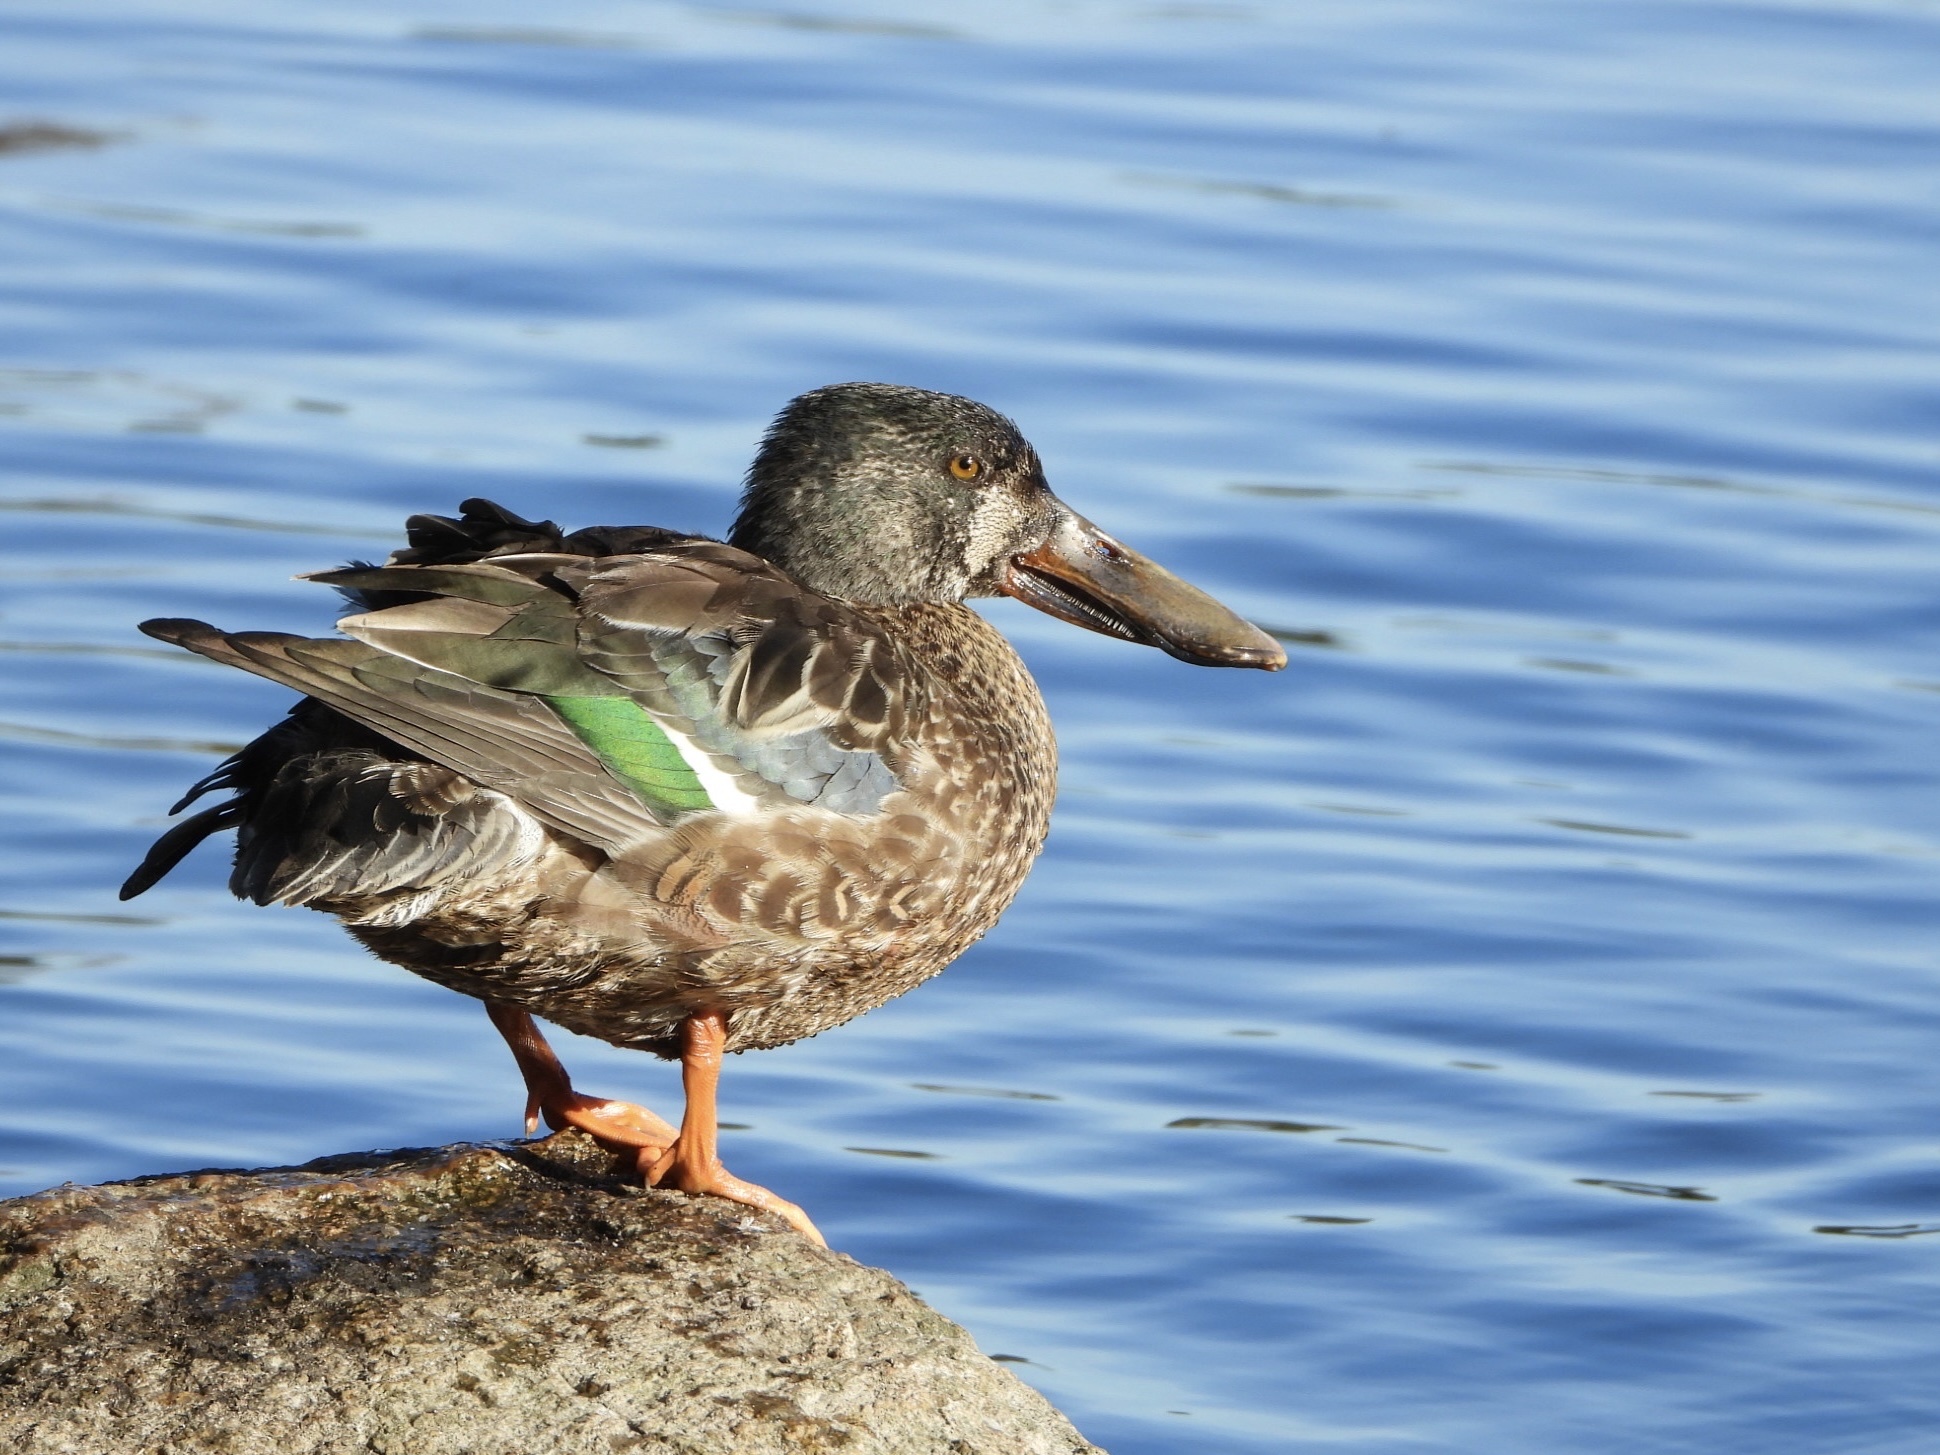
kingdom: Animalia
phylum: Chordata
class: Aves
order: Anseriformes
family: Anatidae
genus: Spatula
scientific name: Spatula clypeata
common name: Northern shoveler
